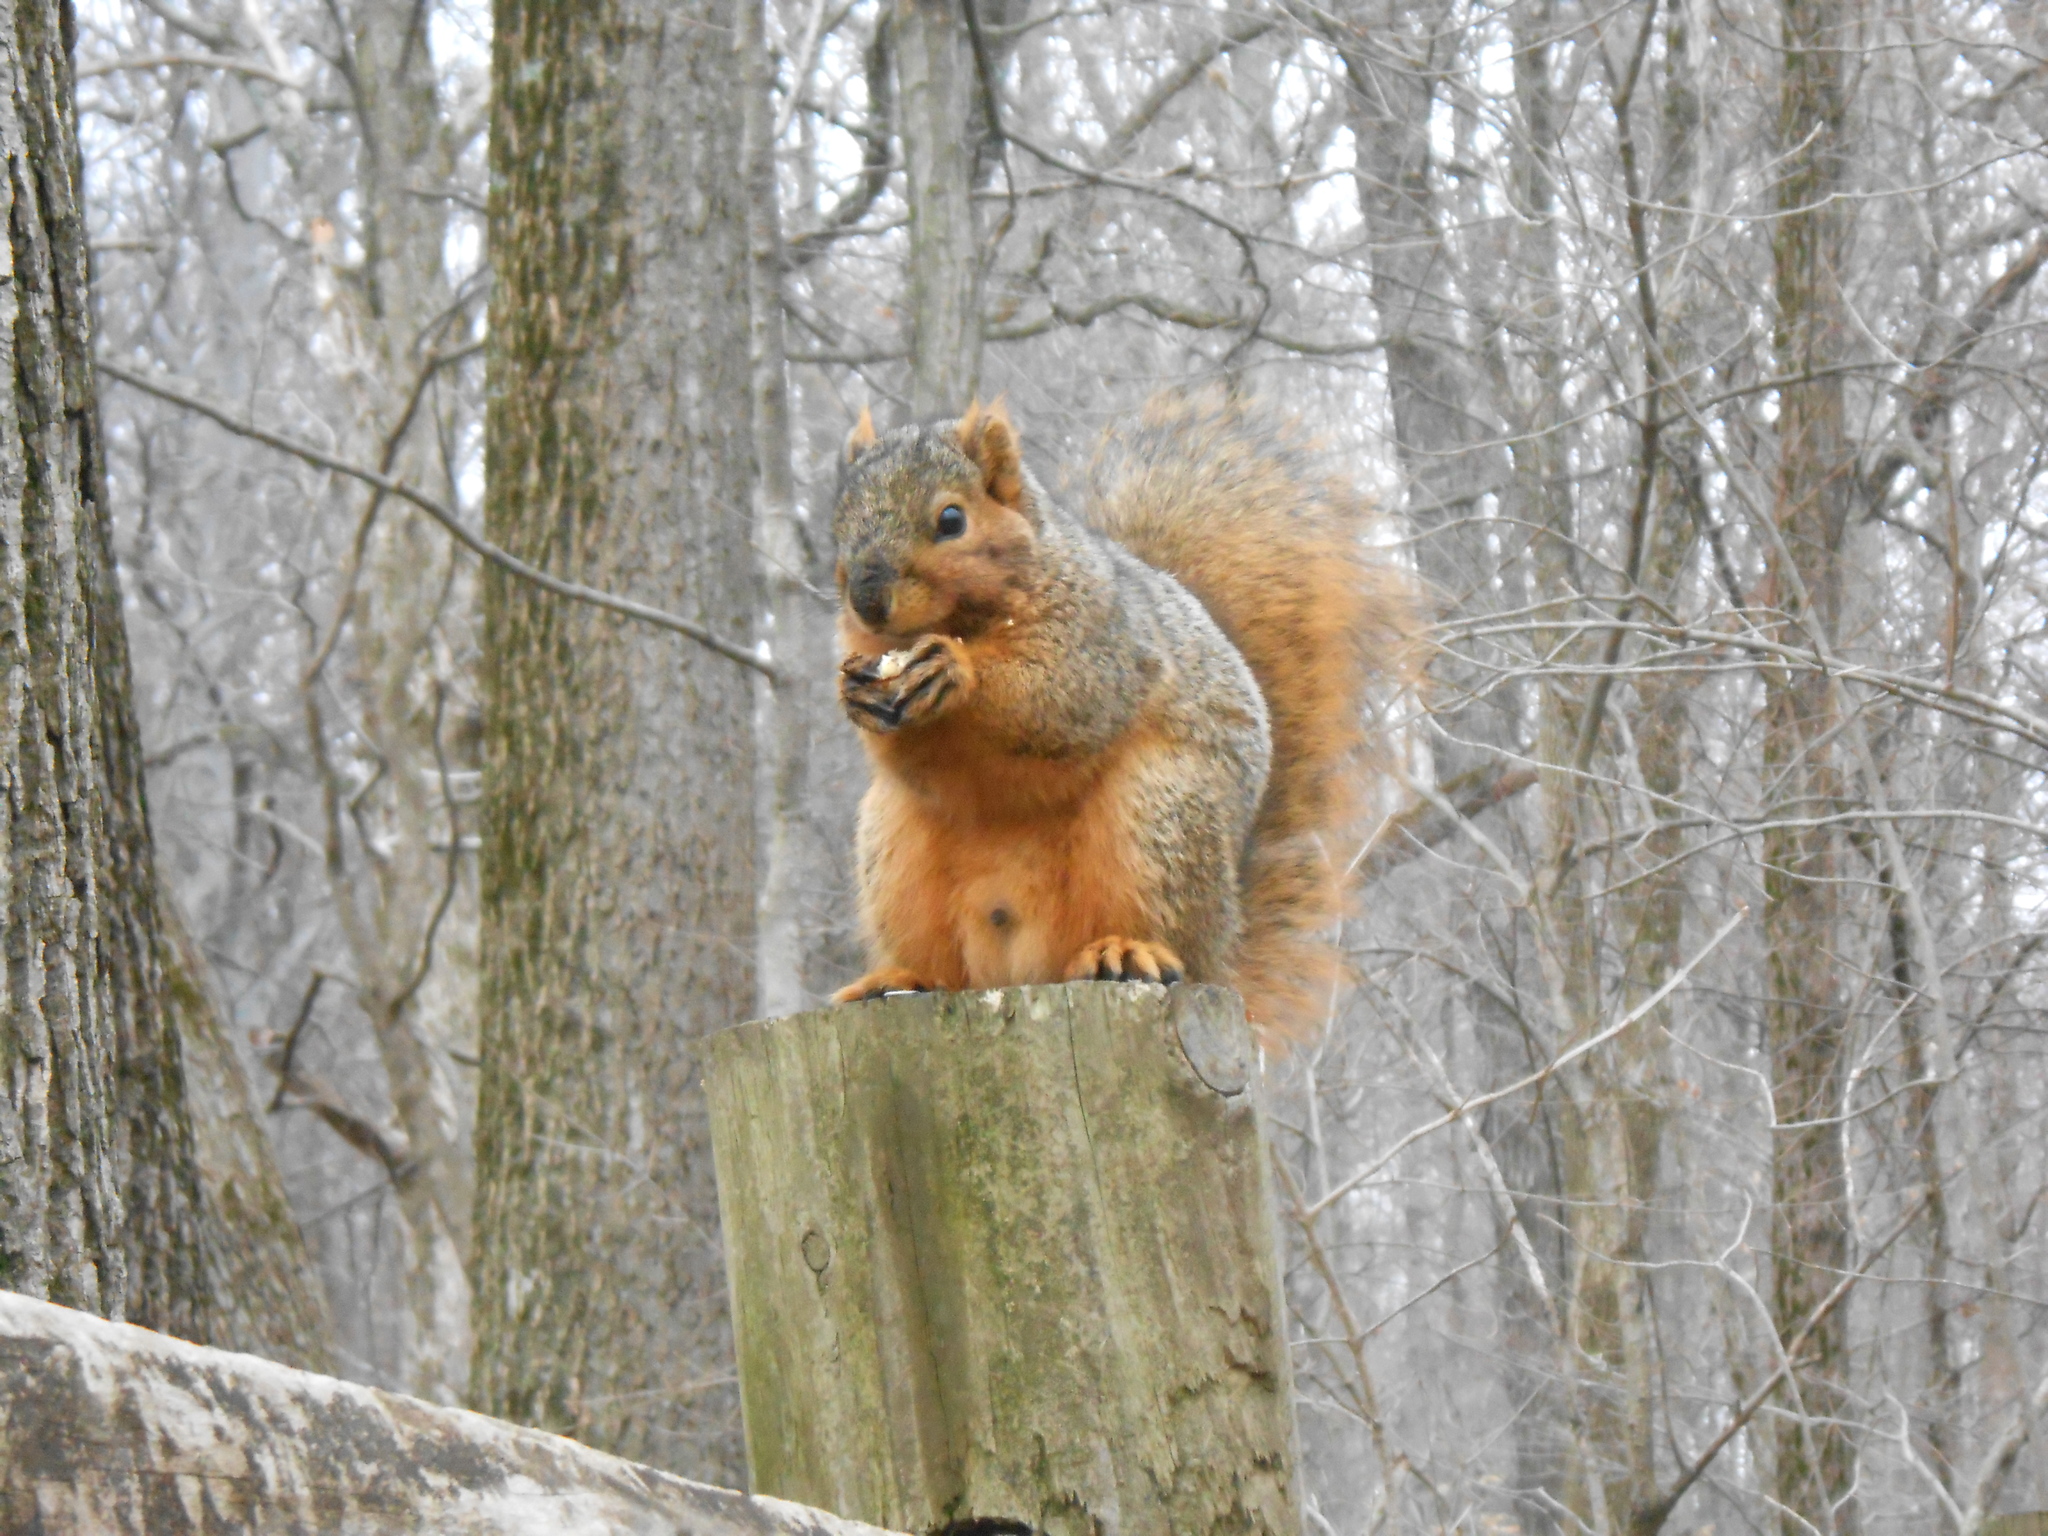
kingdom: Animalia
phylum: Chordata
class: Mammalia
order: Rodentia
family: Sciuridae
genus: Sciurus
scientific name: Sciurus niger
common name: Fox squirrel
